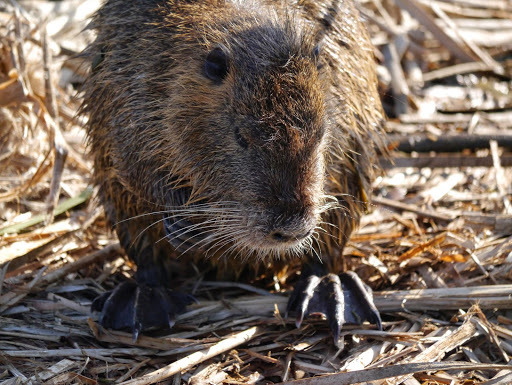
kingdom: Animalia
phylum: Chordata
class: Mammalia
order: Rodentia
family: Myocastoridae
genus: Myocastor
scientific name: Myocastor coypus
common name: Coypu
